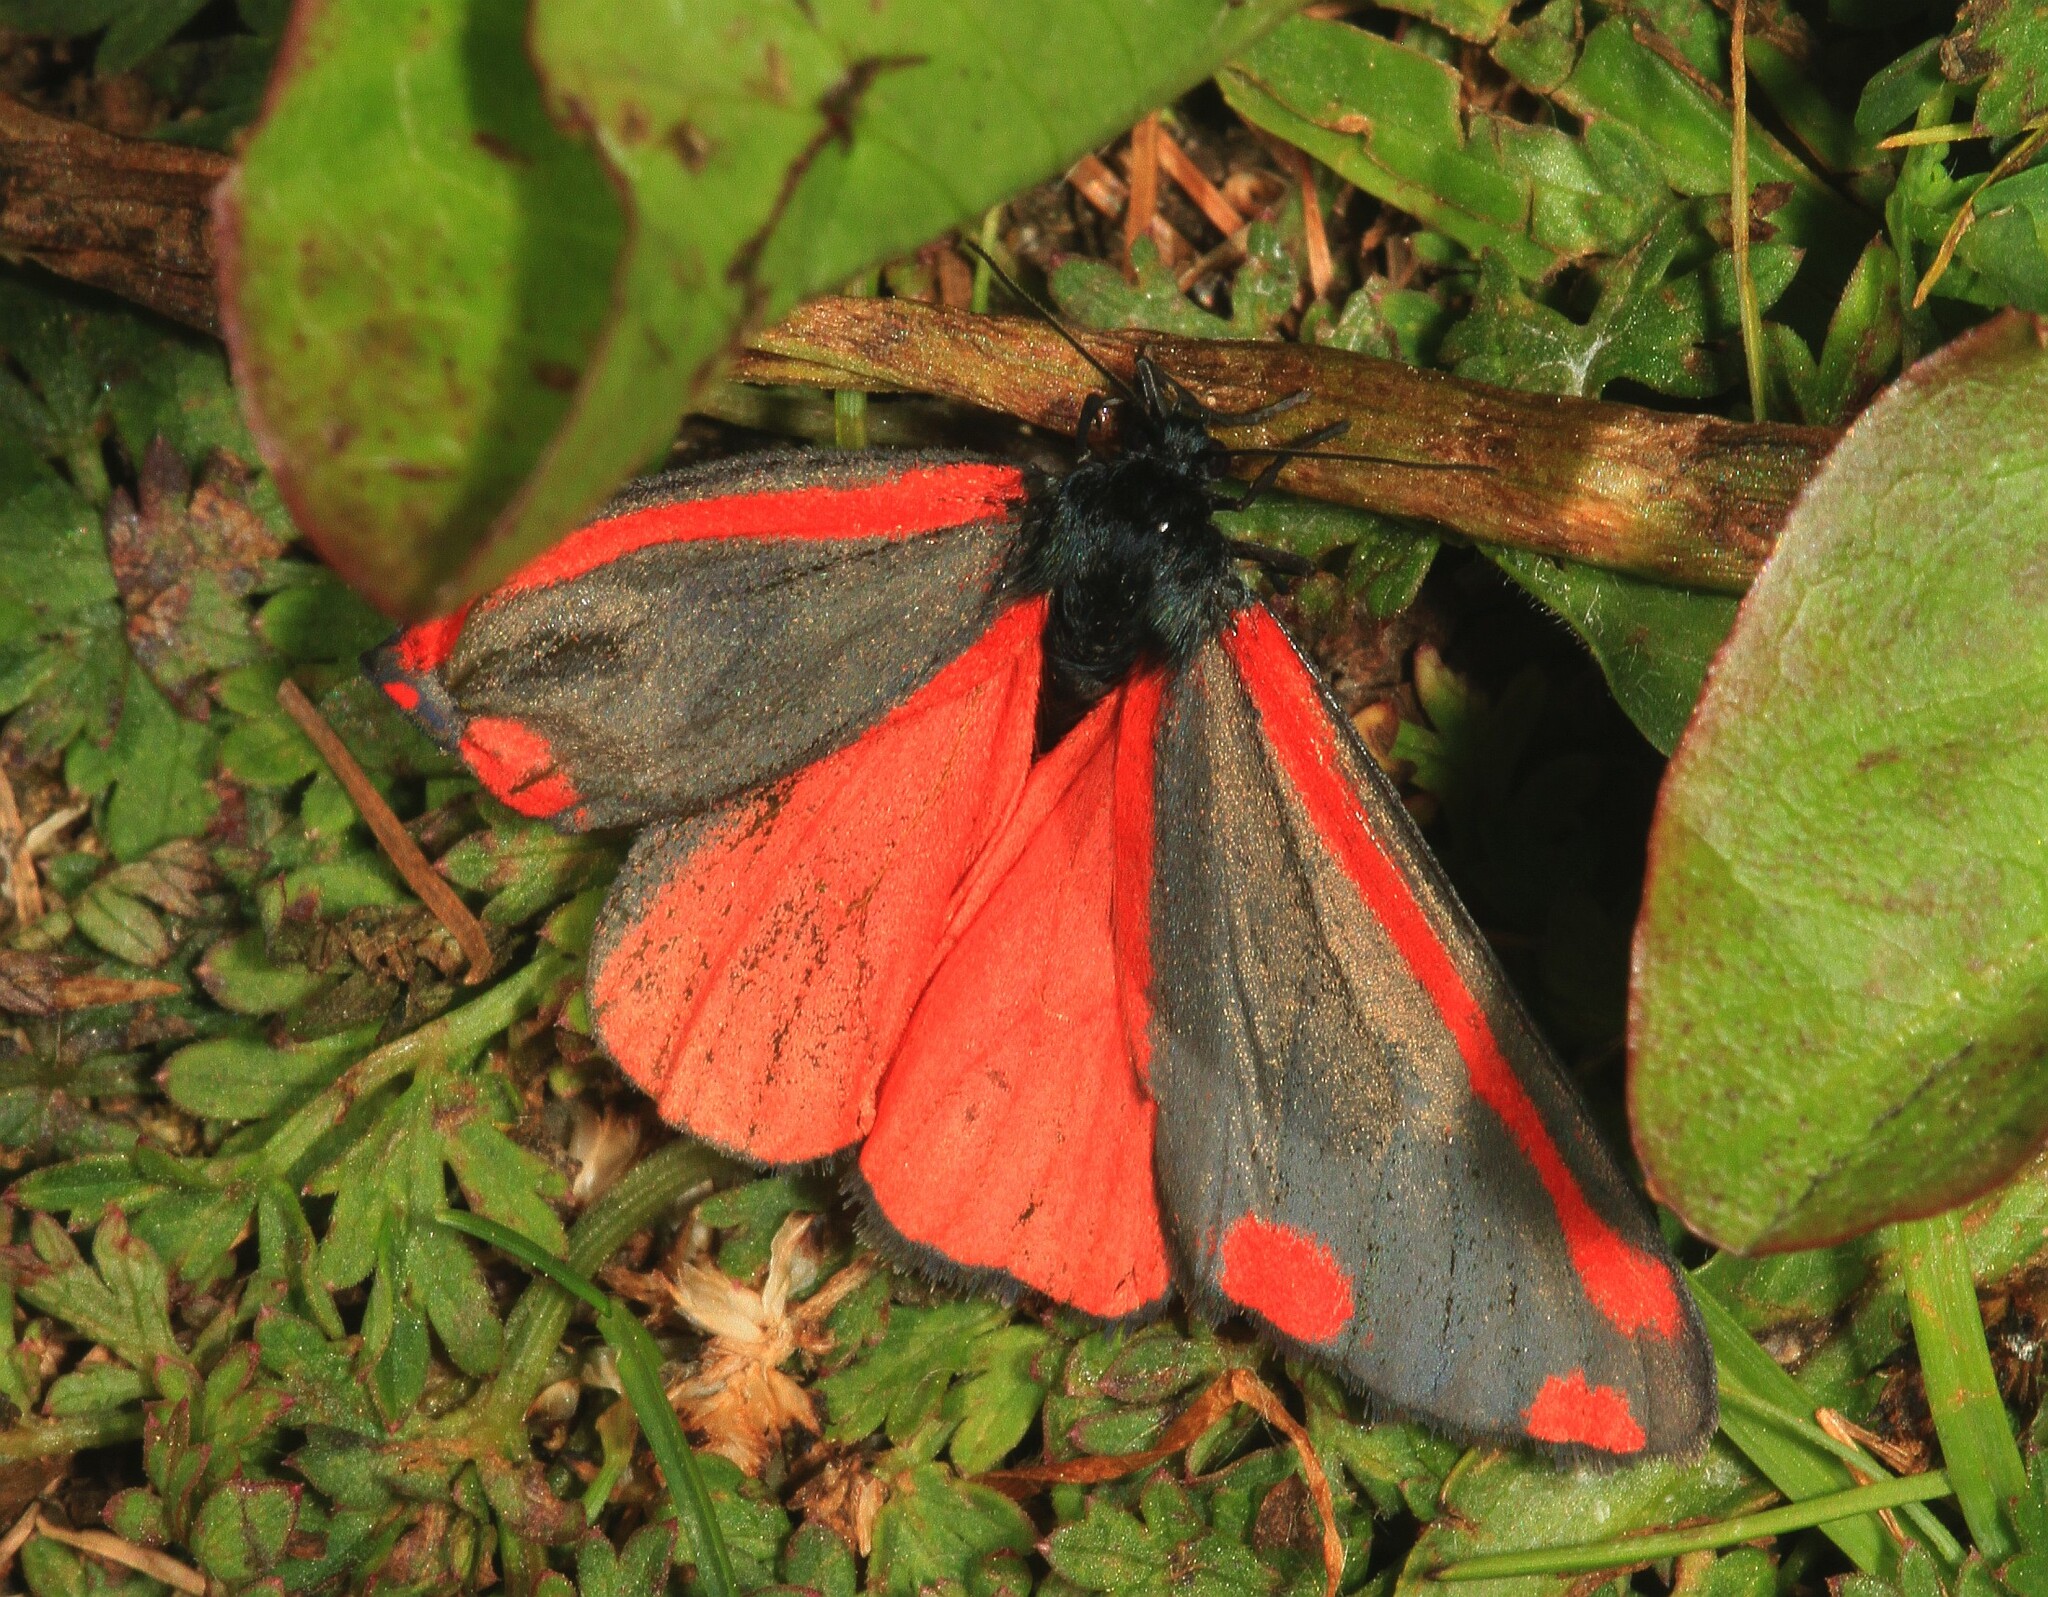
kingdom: Animalia
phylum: Arthropoda
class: Insecta
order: Lepidoptera
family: Erebidae
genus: Tyria
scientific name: Tyria jacobaeae
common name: Cinnabar
